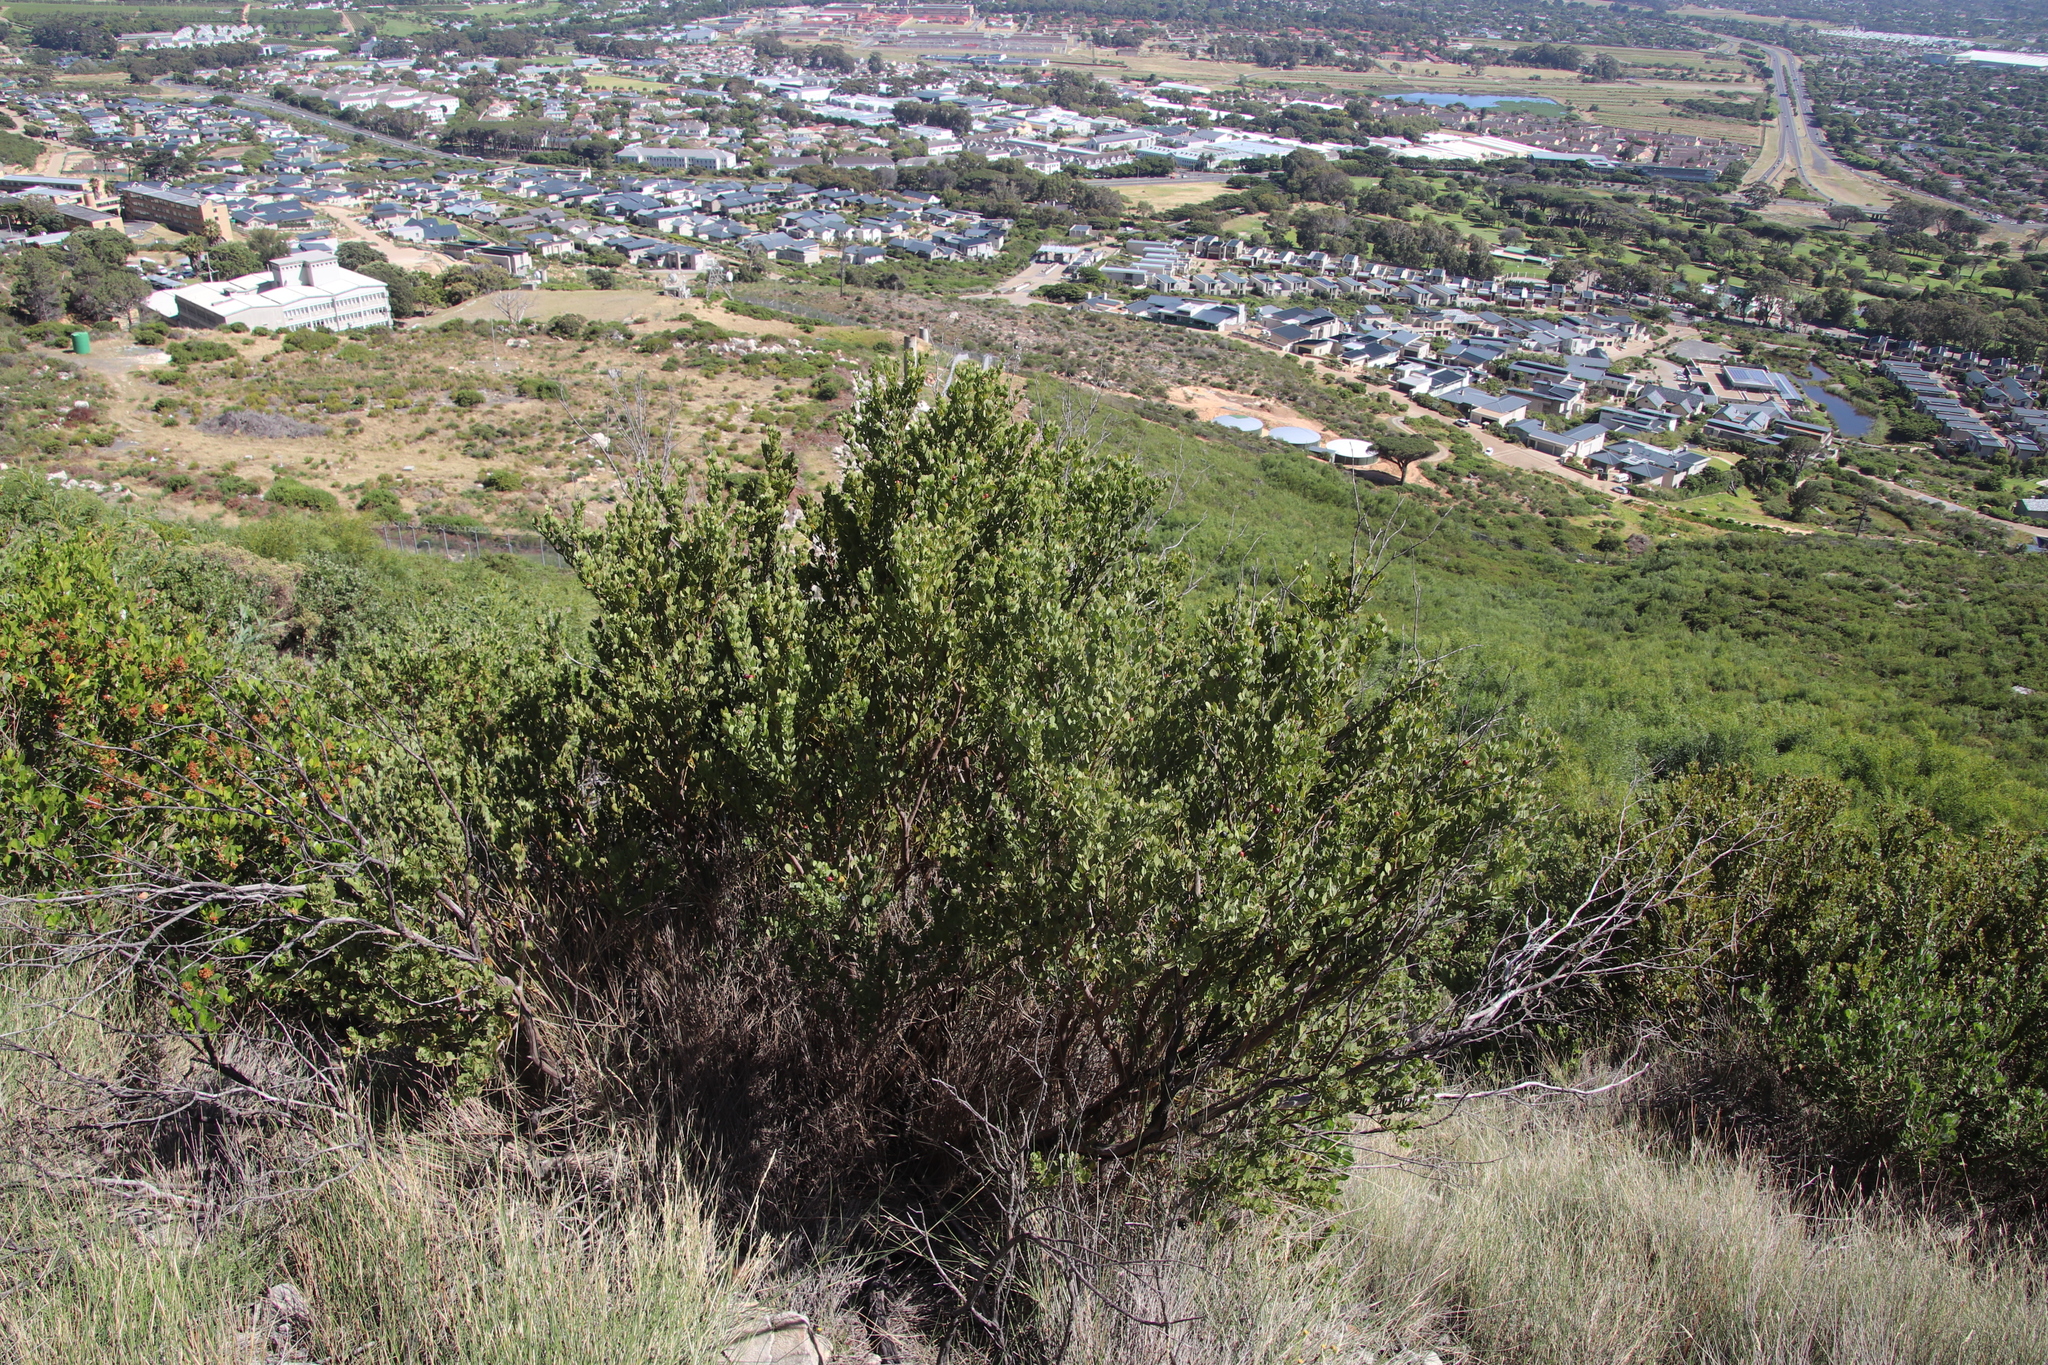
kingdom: Plantae
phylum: Tracheophyta
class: Magnoliopsida
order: Santalales
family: Santalaceae
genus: Osyris
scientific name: Osyris compressa
